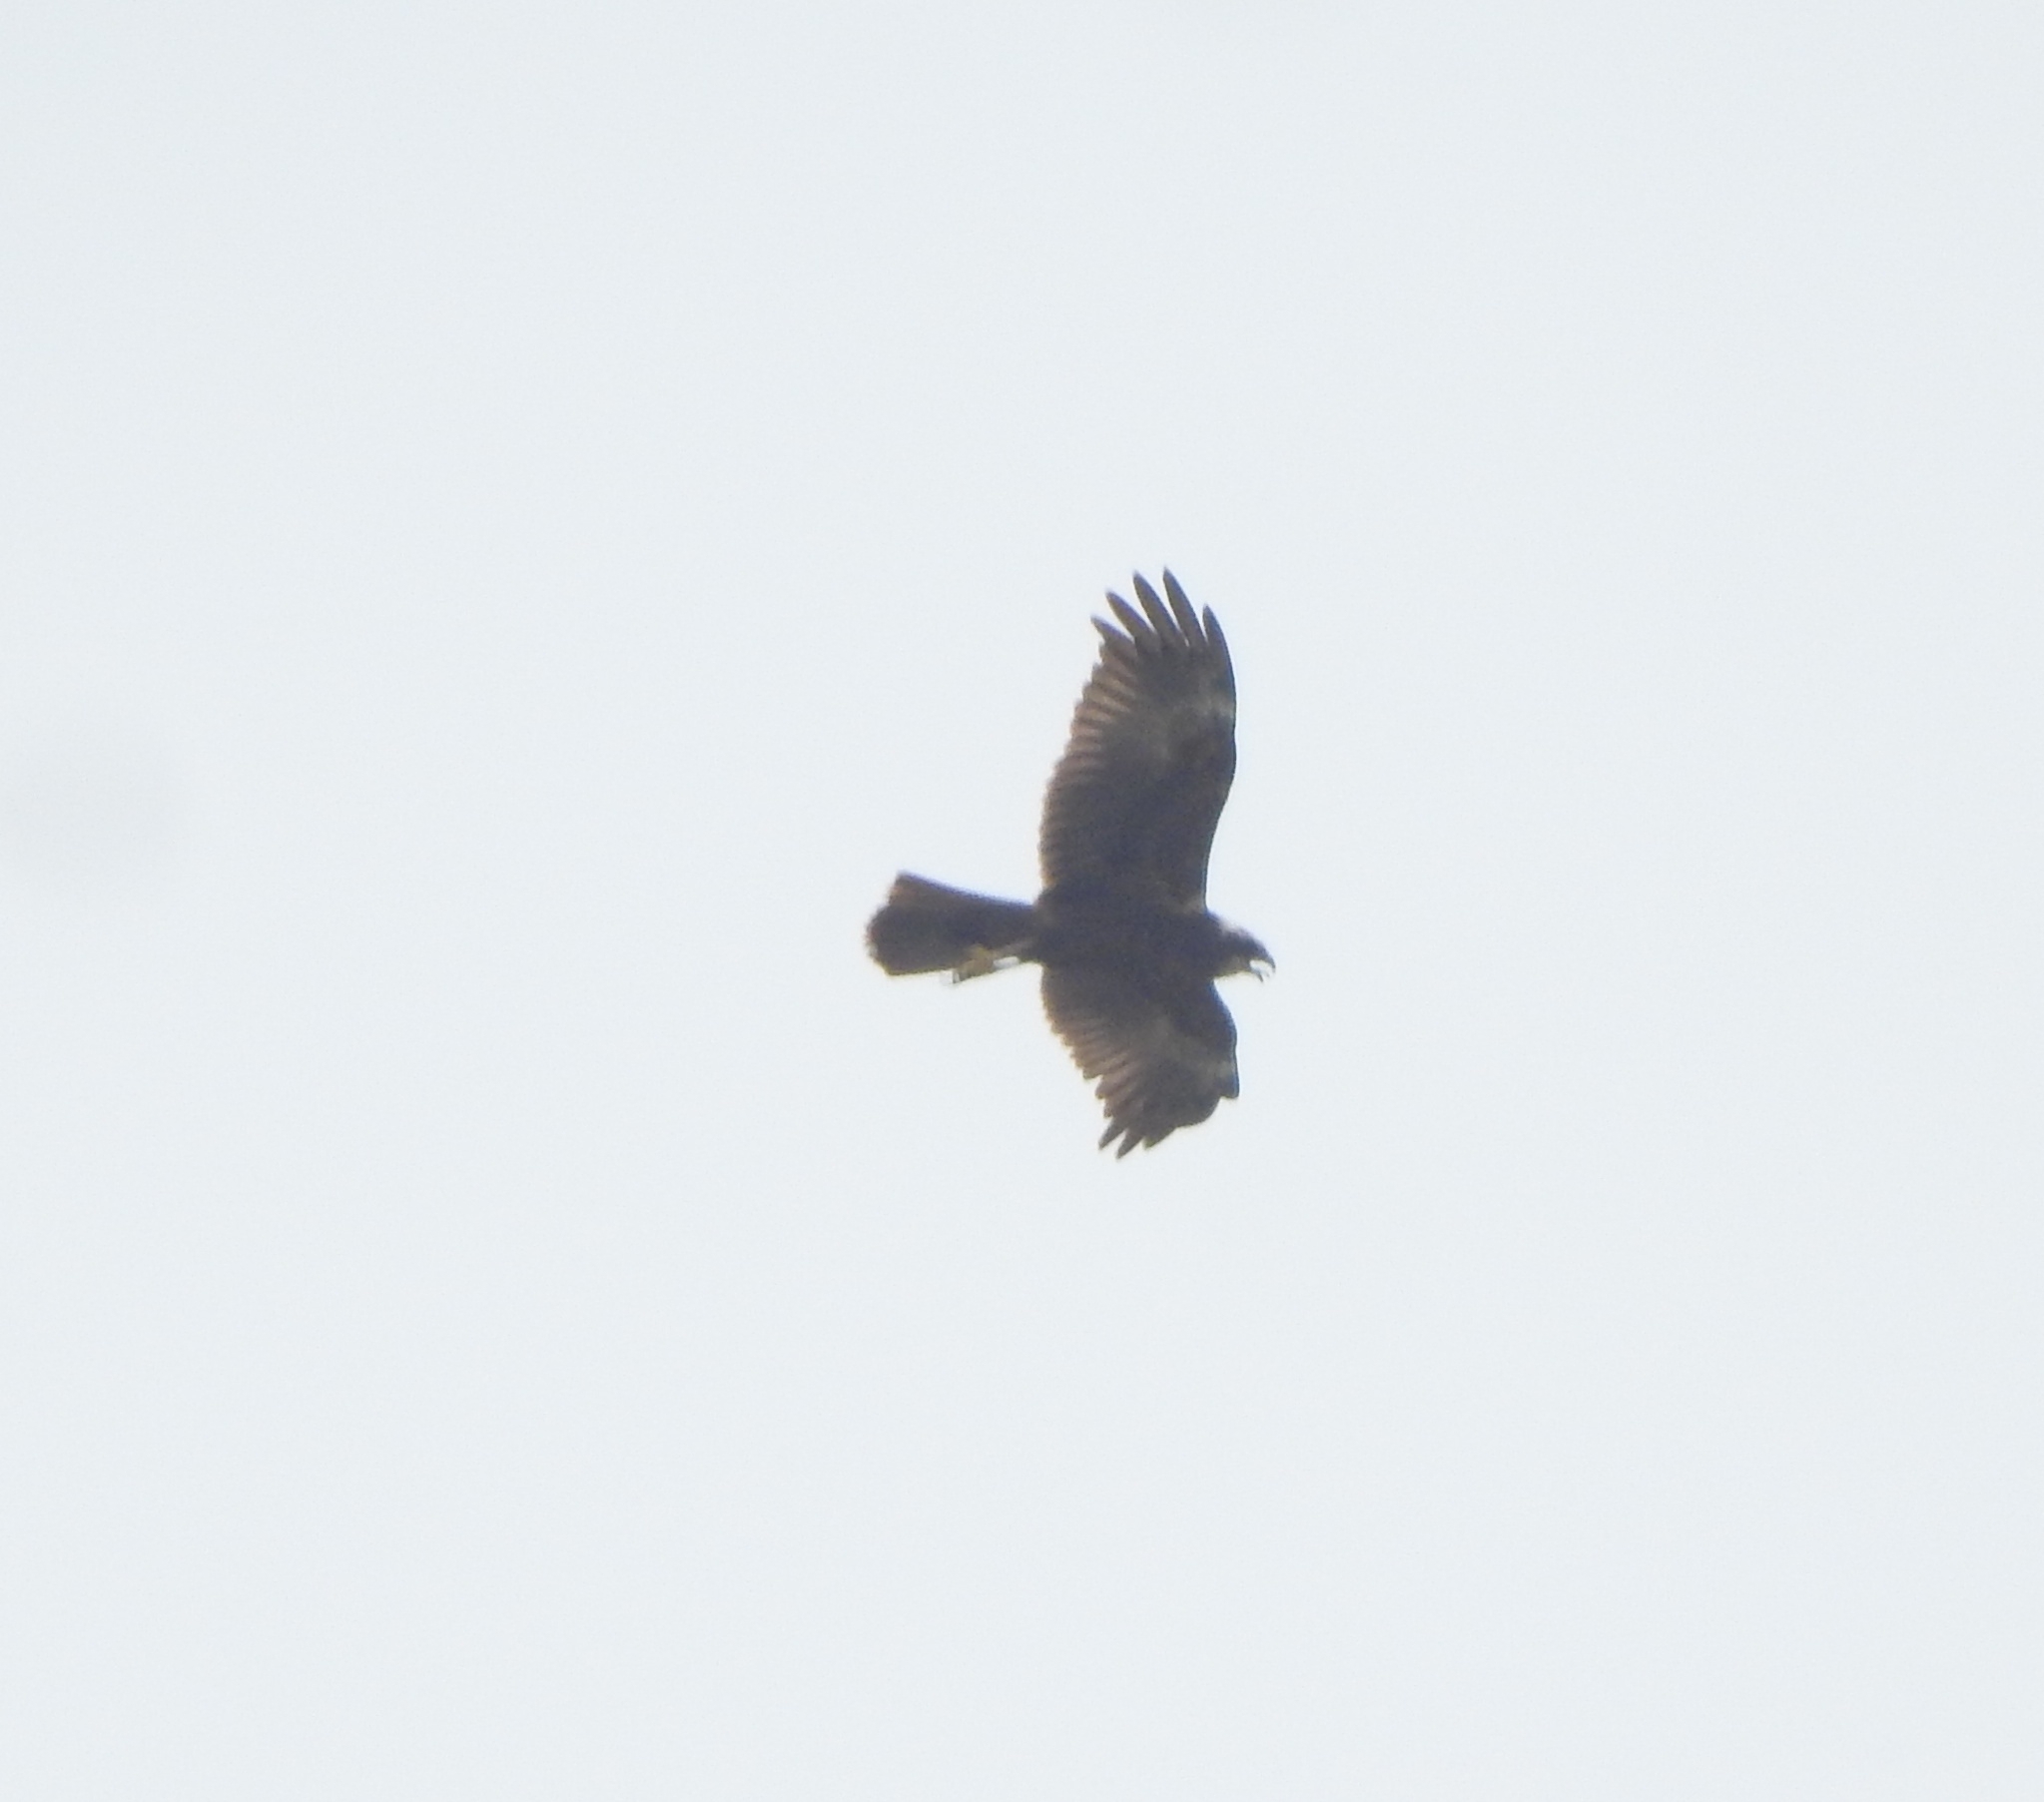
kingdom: Animalia
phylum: Chordata
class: Aves
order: Accipitriformes
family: Accipitridae
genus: Circus
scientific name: Circus aeruginosus
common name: Western marsh harrier
